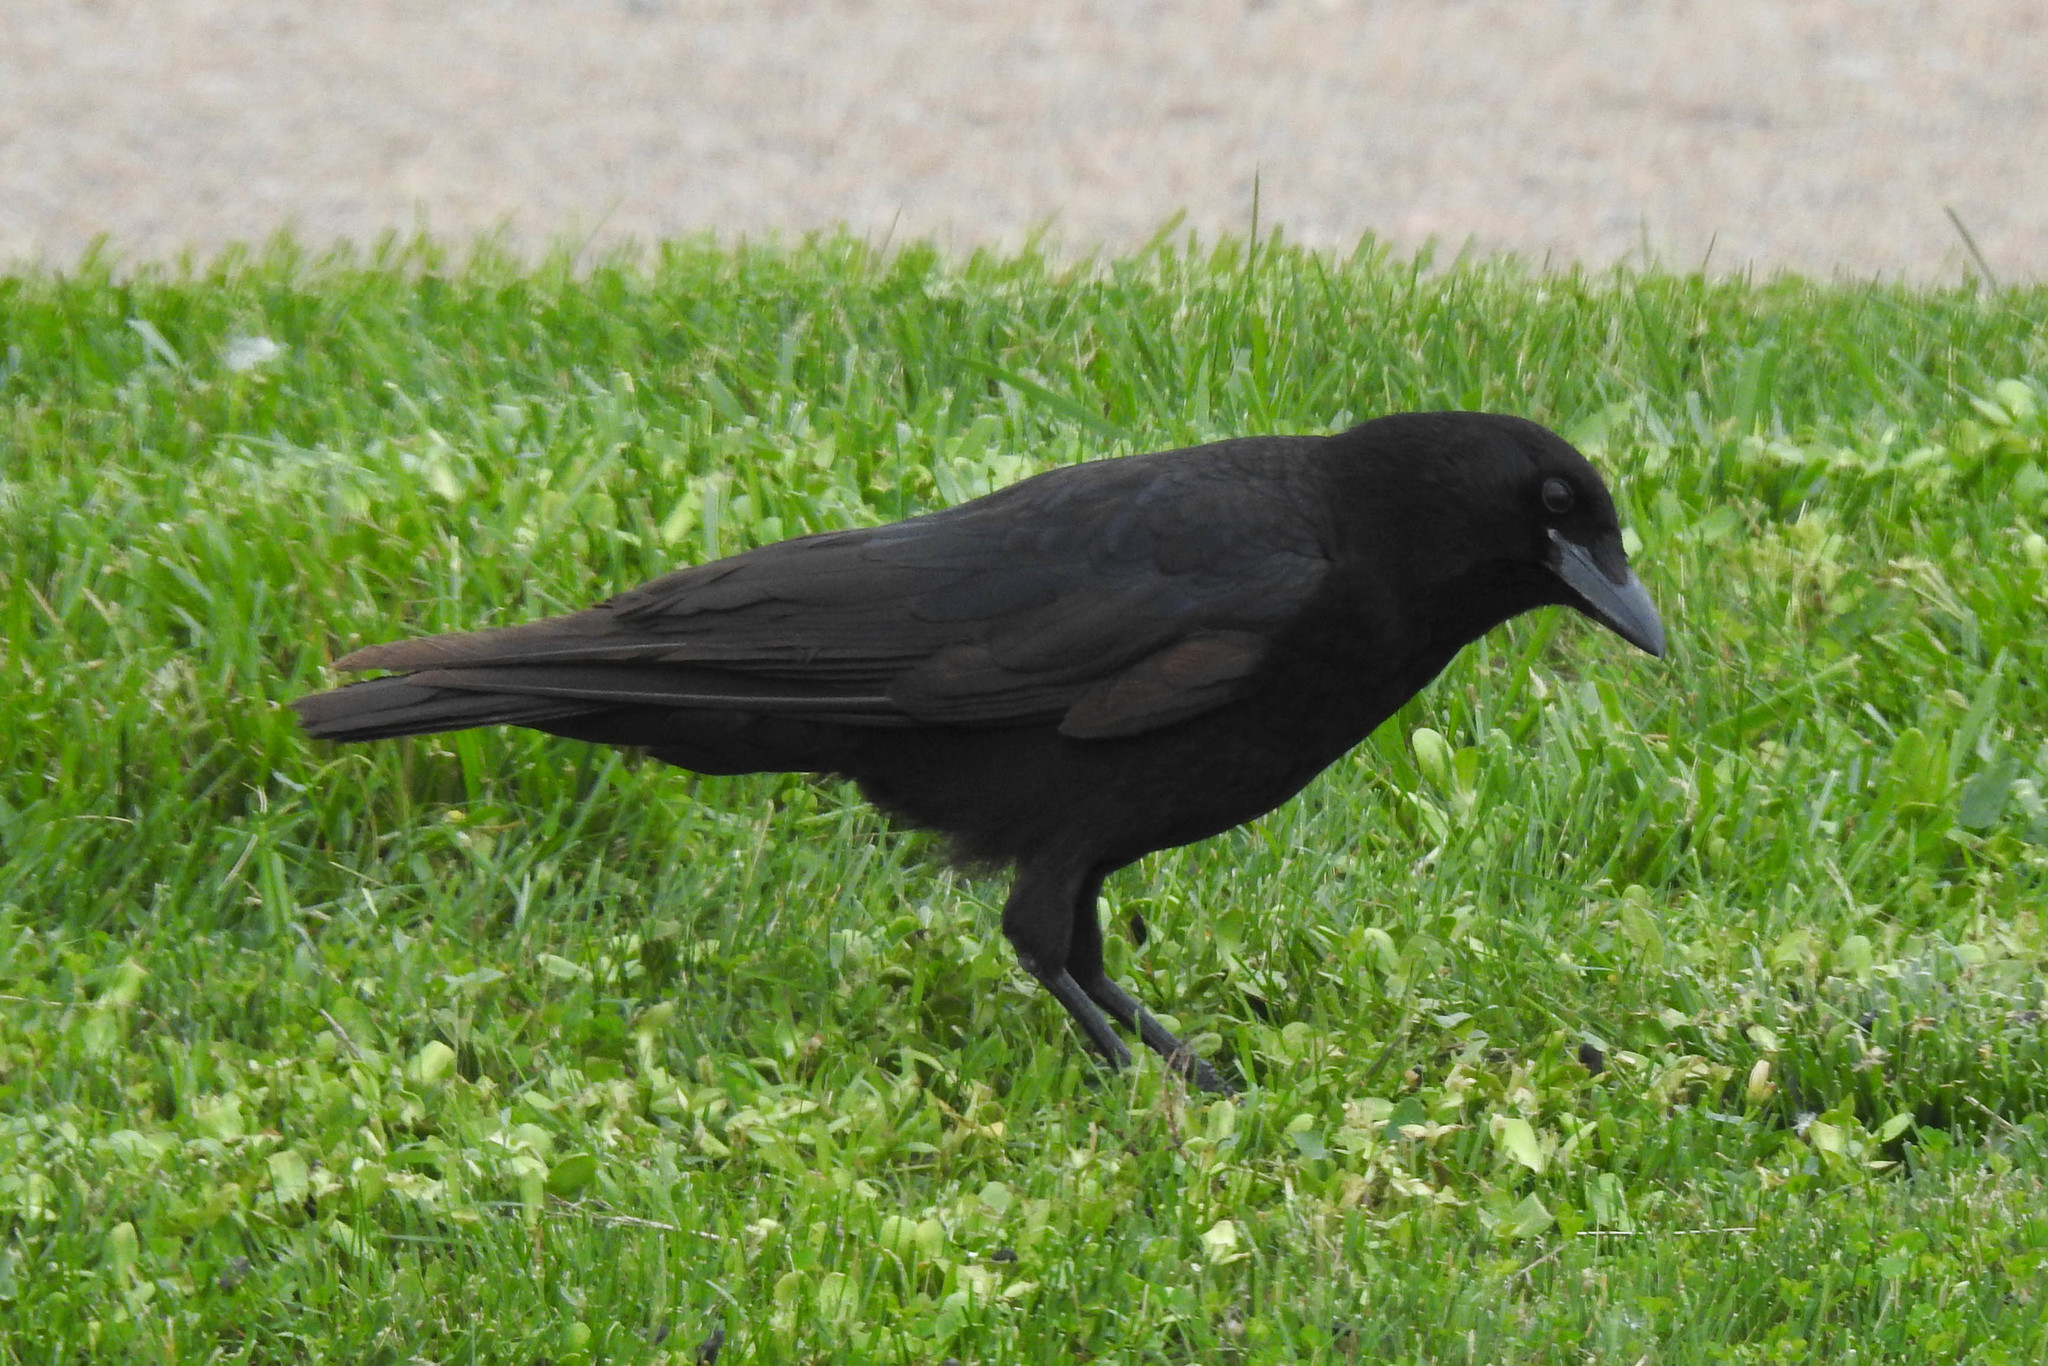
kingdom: Animalia
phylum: Chordata
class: Aves
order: Passeriformes
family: Corvidae
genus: Corvus
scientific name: Corvus brachyrhynchos
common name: American crow
